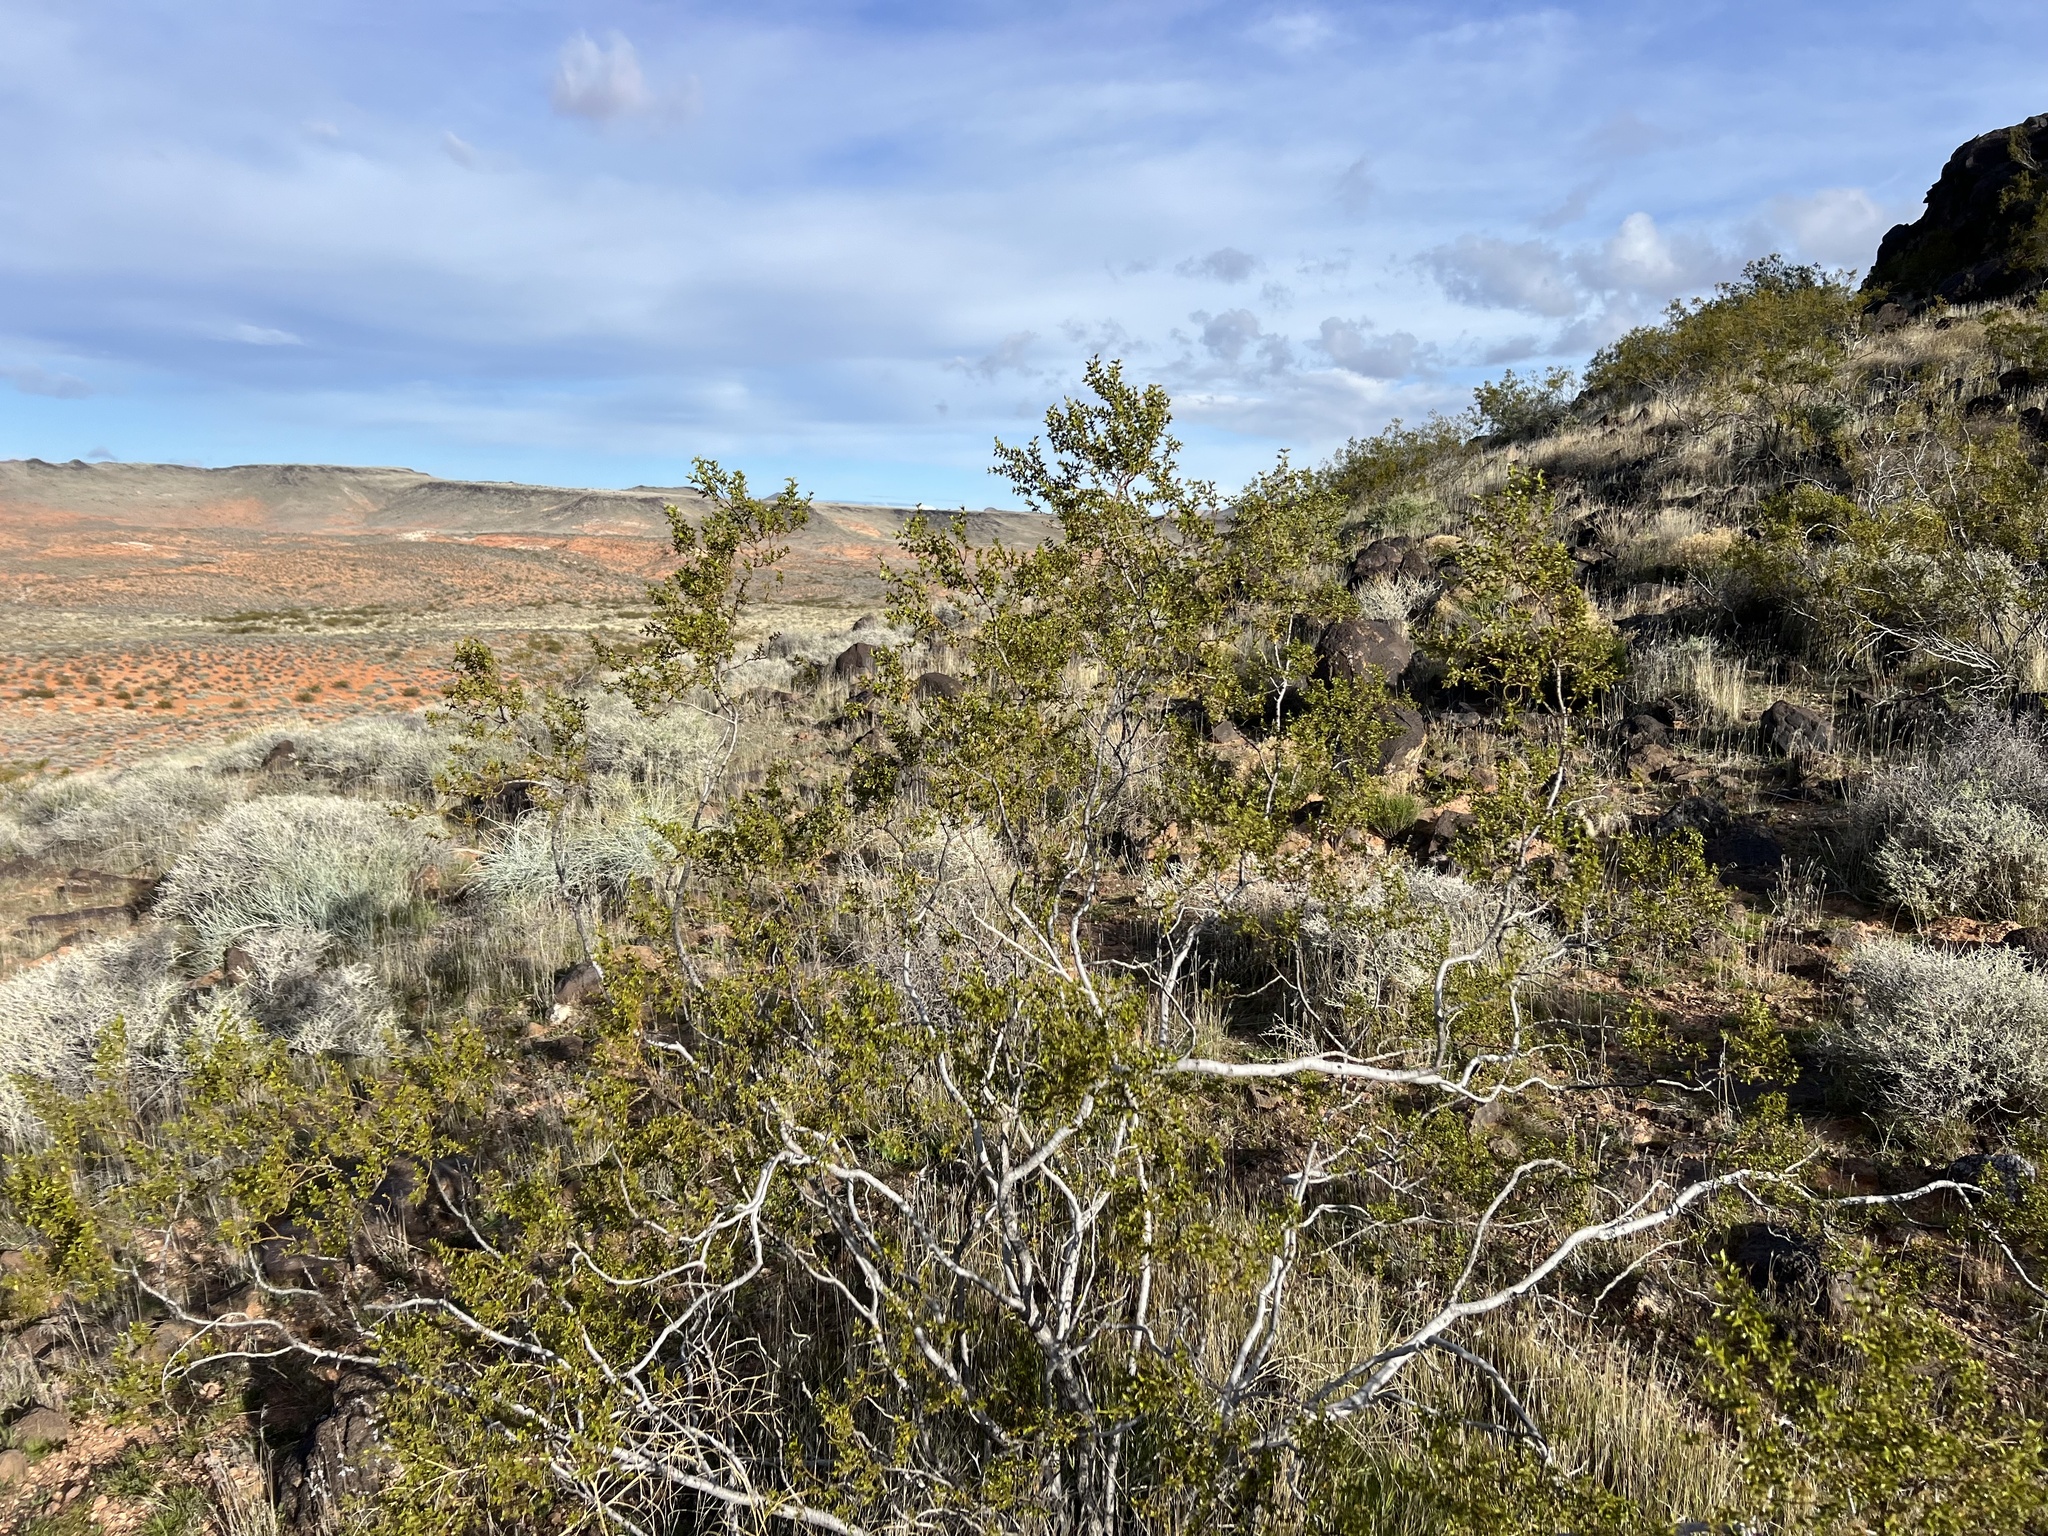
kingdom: Plantae
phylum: Tracheophyta
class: Magnoliopsida
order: Zygophyllales
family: Zygophyllaceae
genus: Larrea
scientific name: Larrea tridentata
